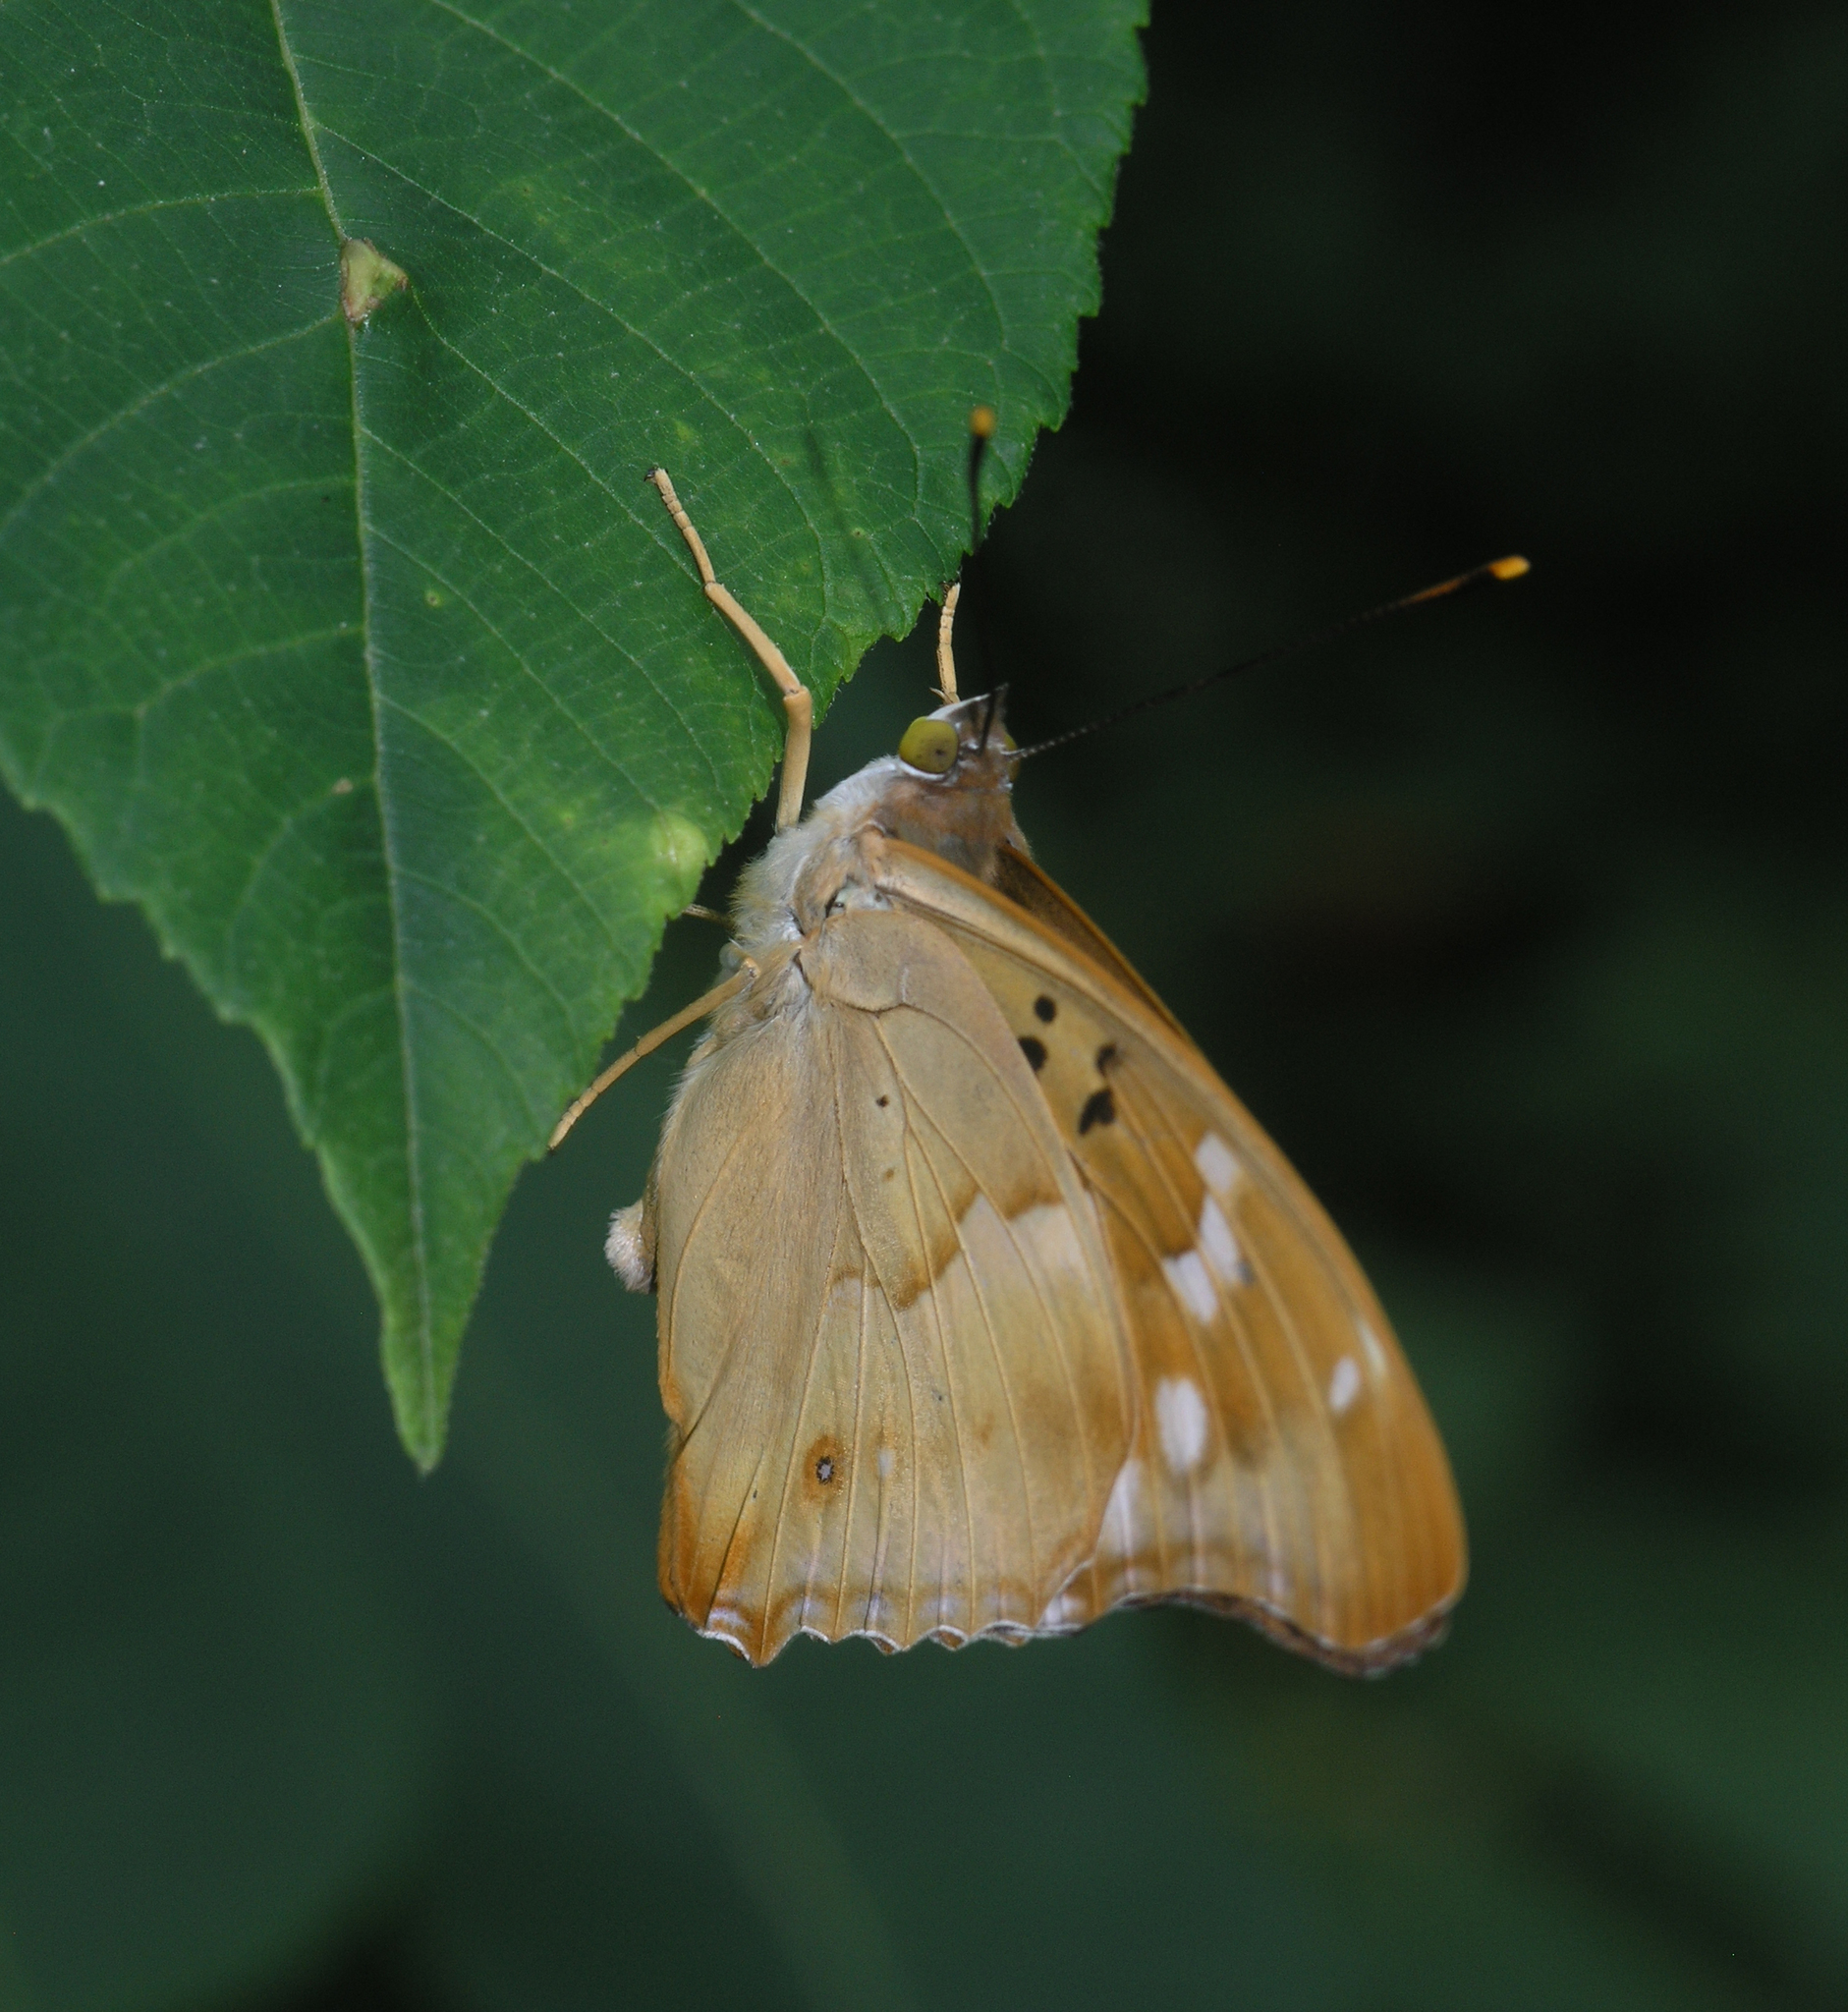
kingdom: Animalia
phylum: Arthropoda
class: Insecta
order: Lepidoptera
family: Nymphalidae
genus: Apatura
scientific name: Apatura ilia
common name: Lesser purple emperor
